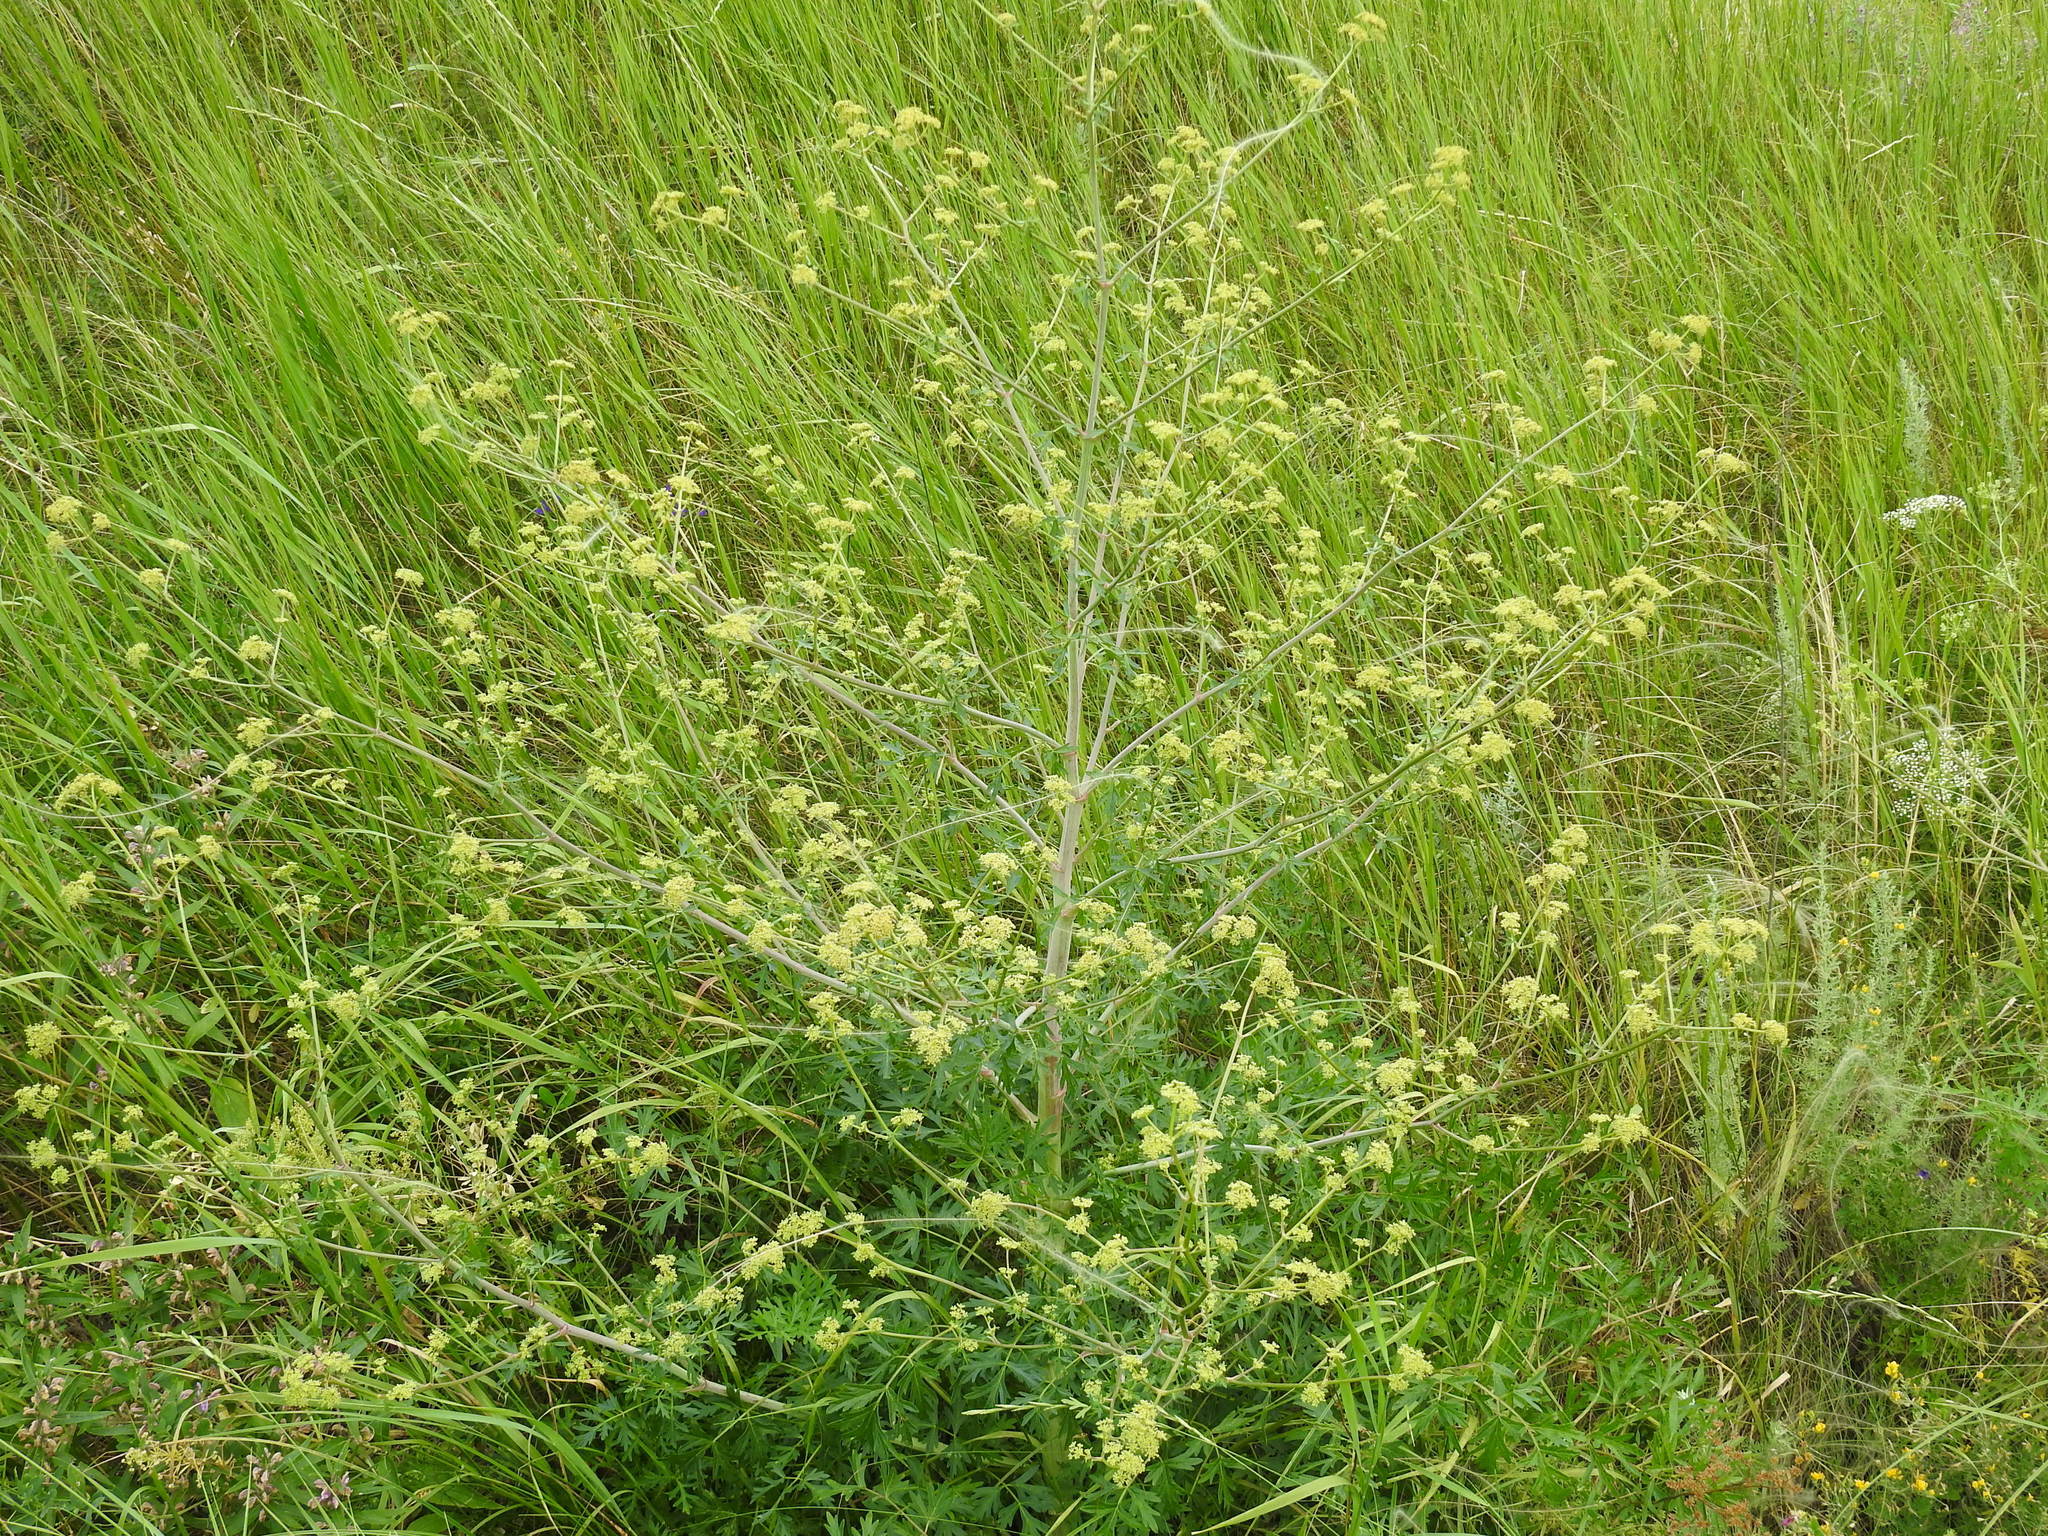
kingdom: Plantae
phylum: Tracheophyta
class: Magnoliopsida
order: Apiales
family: Apiaceae
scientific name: Apiaceae
